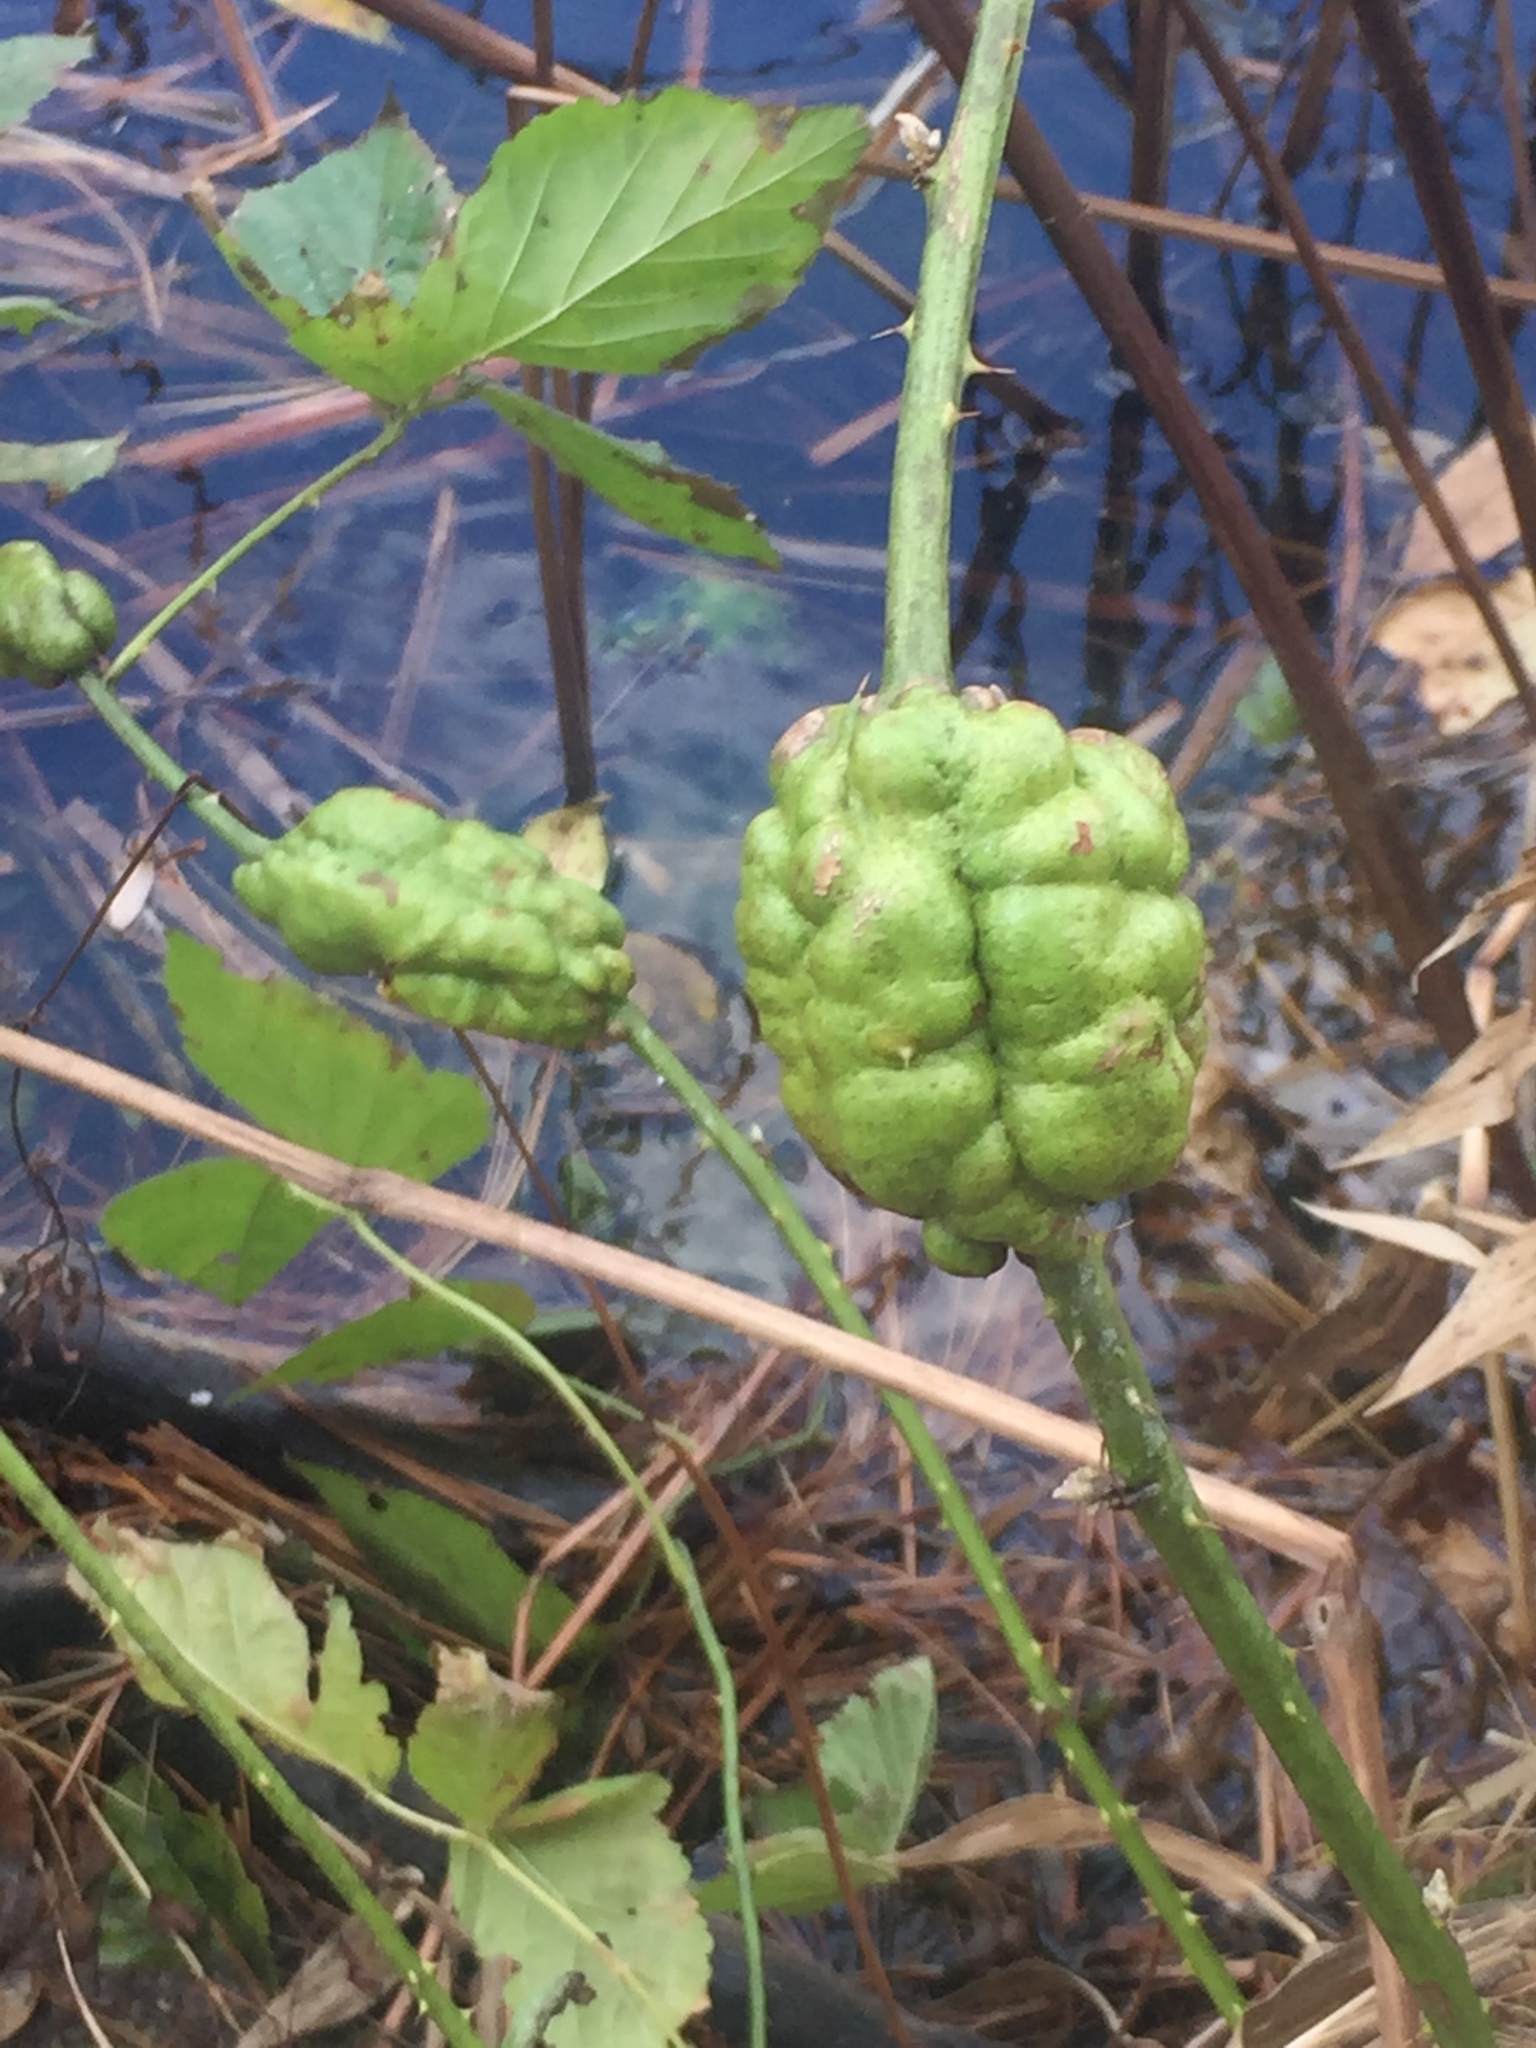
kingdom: Animalia
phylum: Arthropoda
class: Insecta
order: Hymenoptera
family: Cynipidae
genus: Diastrophus
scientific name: Diastrophus
